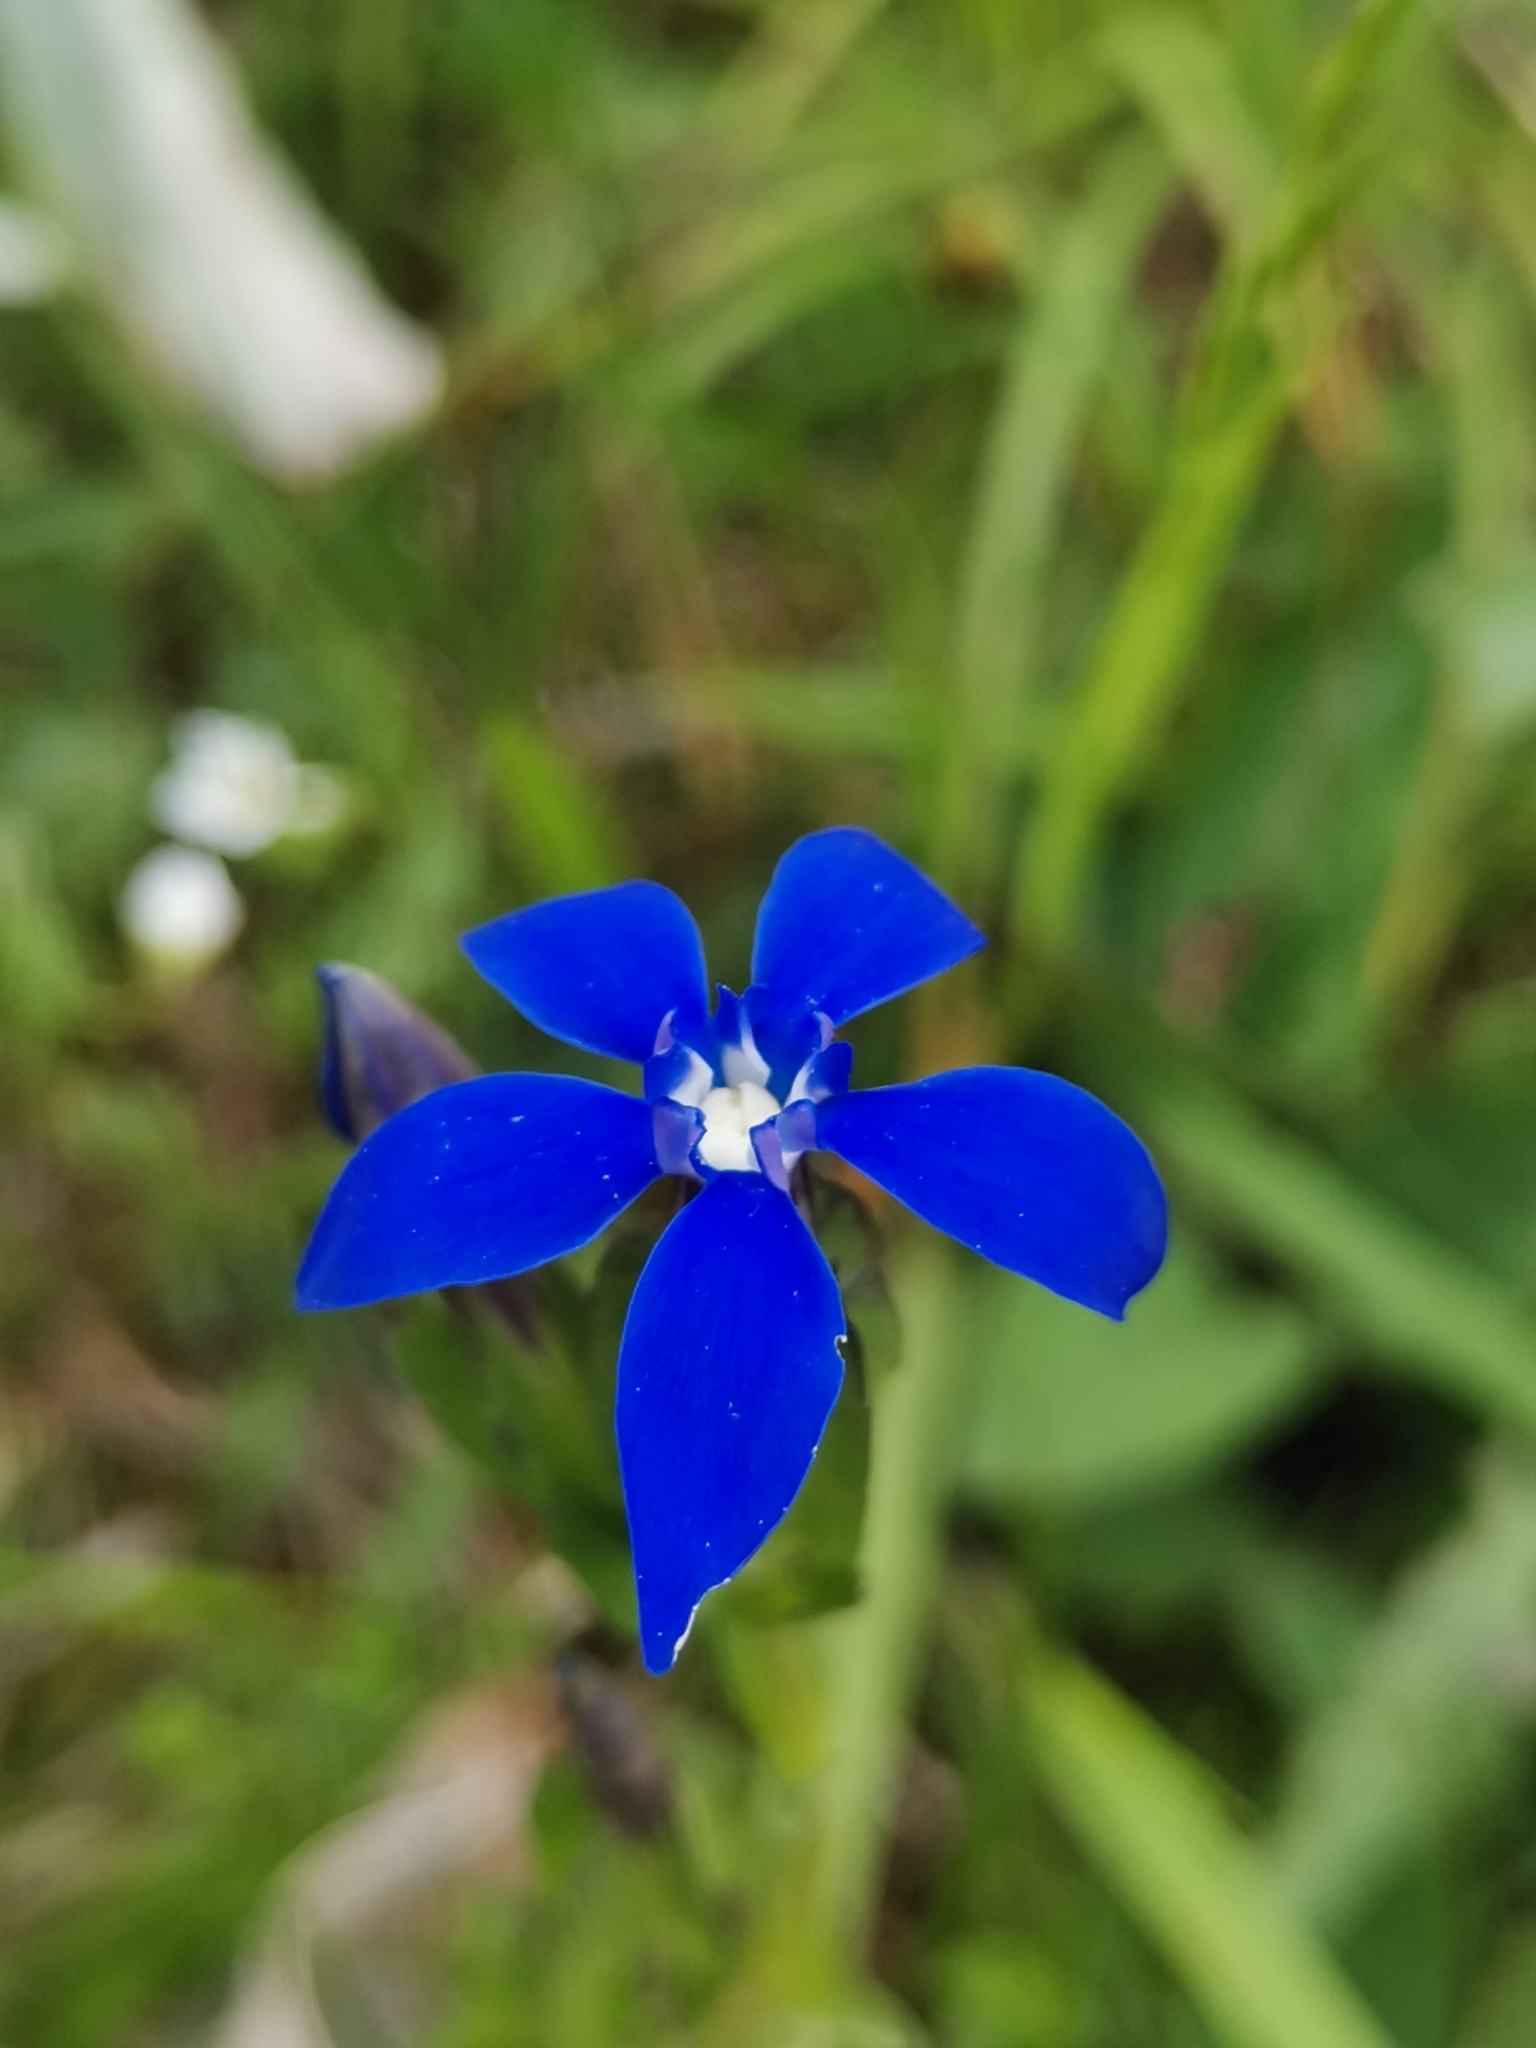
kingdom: Plantae
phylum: Tracheophyta
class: Magnoliopsida
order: Gentianales
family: Gentianaceae
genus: Gentiana
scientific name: Gentiana utriculosa
